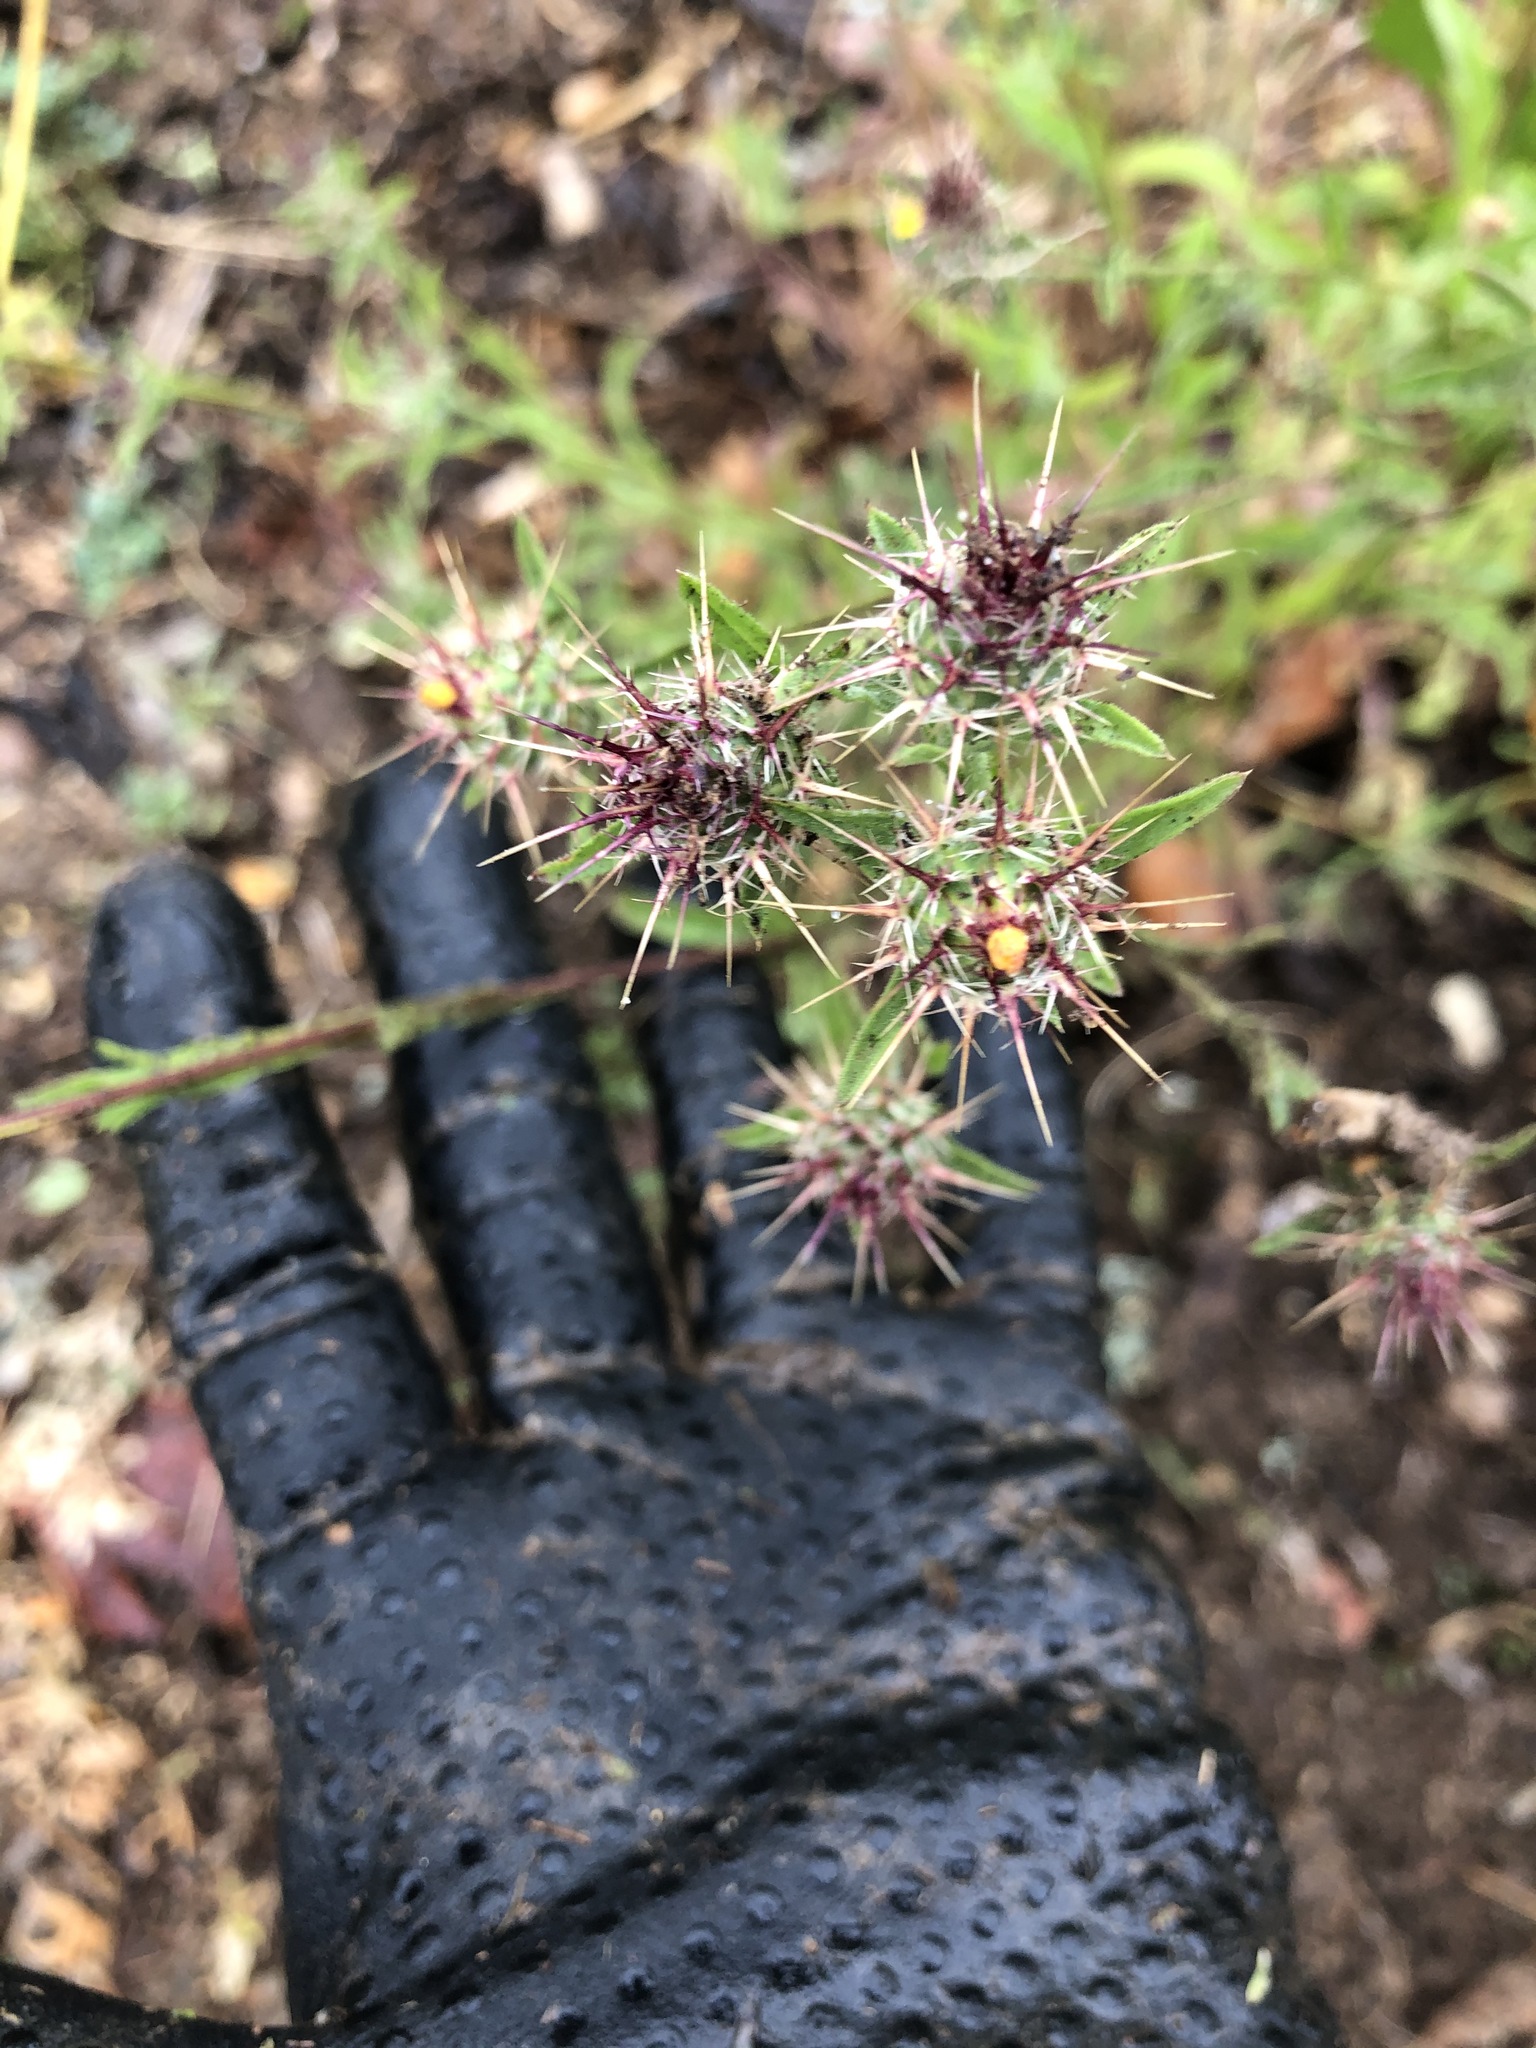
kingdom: Plantae
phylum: Tracheophyta
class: Magnoliopsida
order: Asterales
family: Asteraceae
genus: Centaurea
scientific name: Centaurea melitensis
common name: Maltese star-thistle
